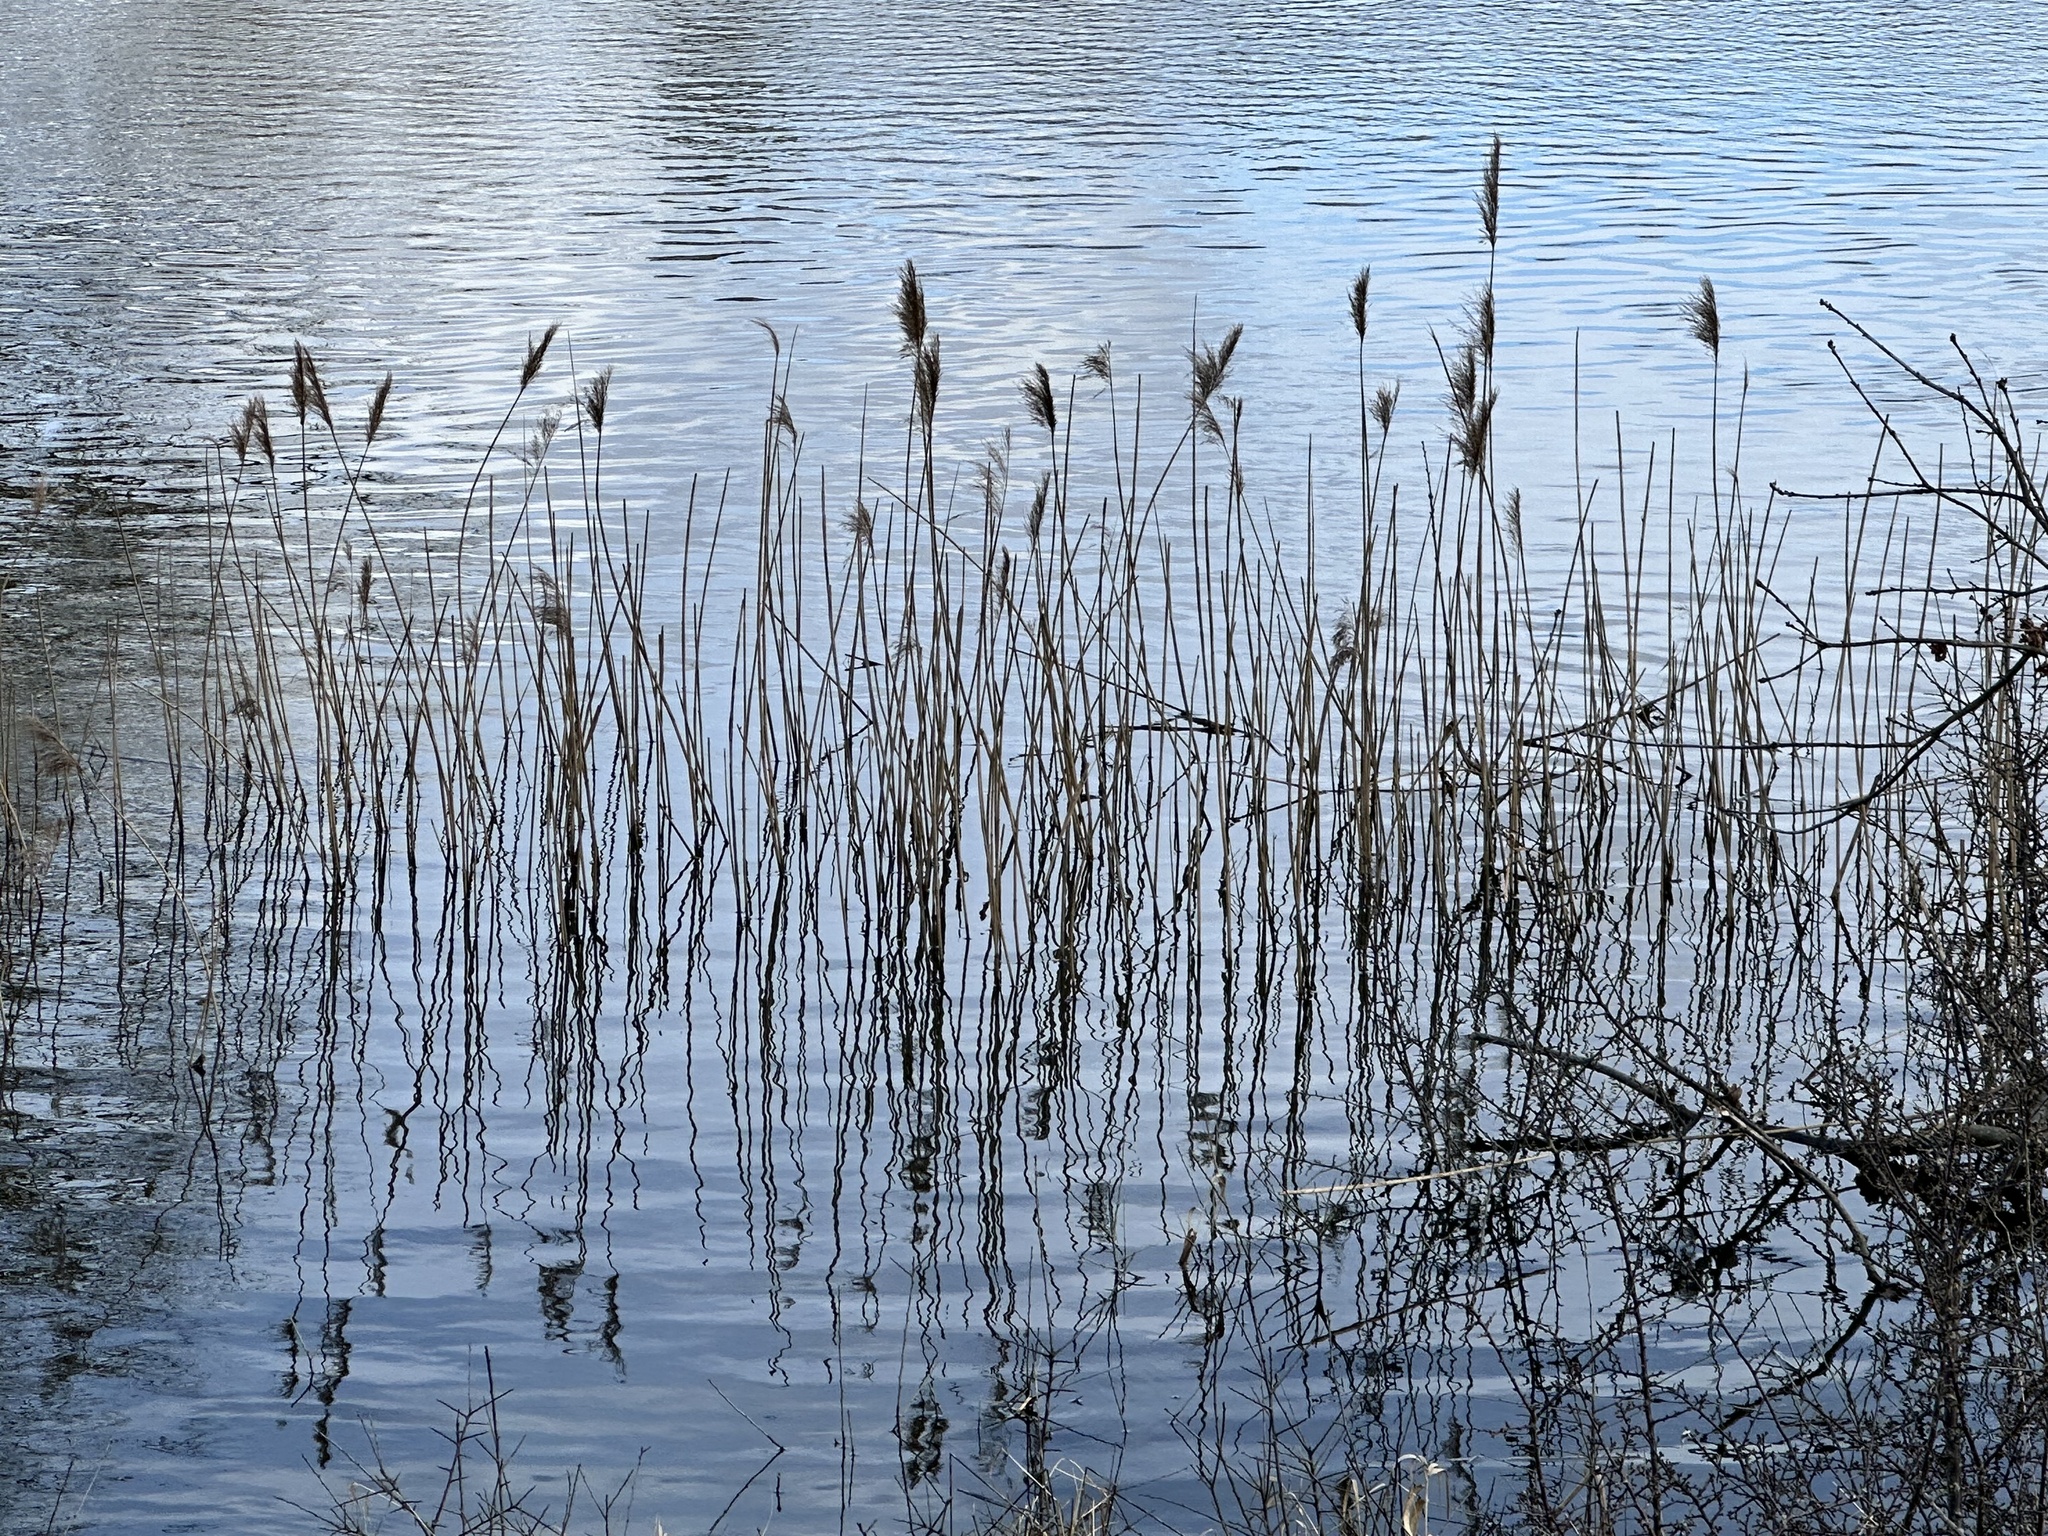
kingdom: Plantae
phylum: Tracheophyta
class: Liliopsida
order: Poales
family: Poaceae
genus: Phragmites
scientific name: Phragmites australis
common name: Common reed
